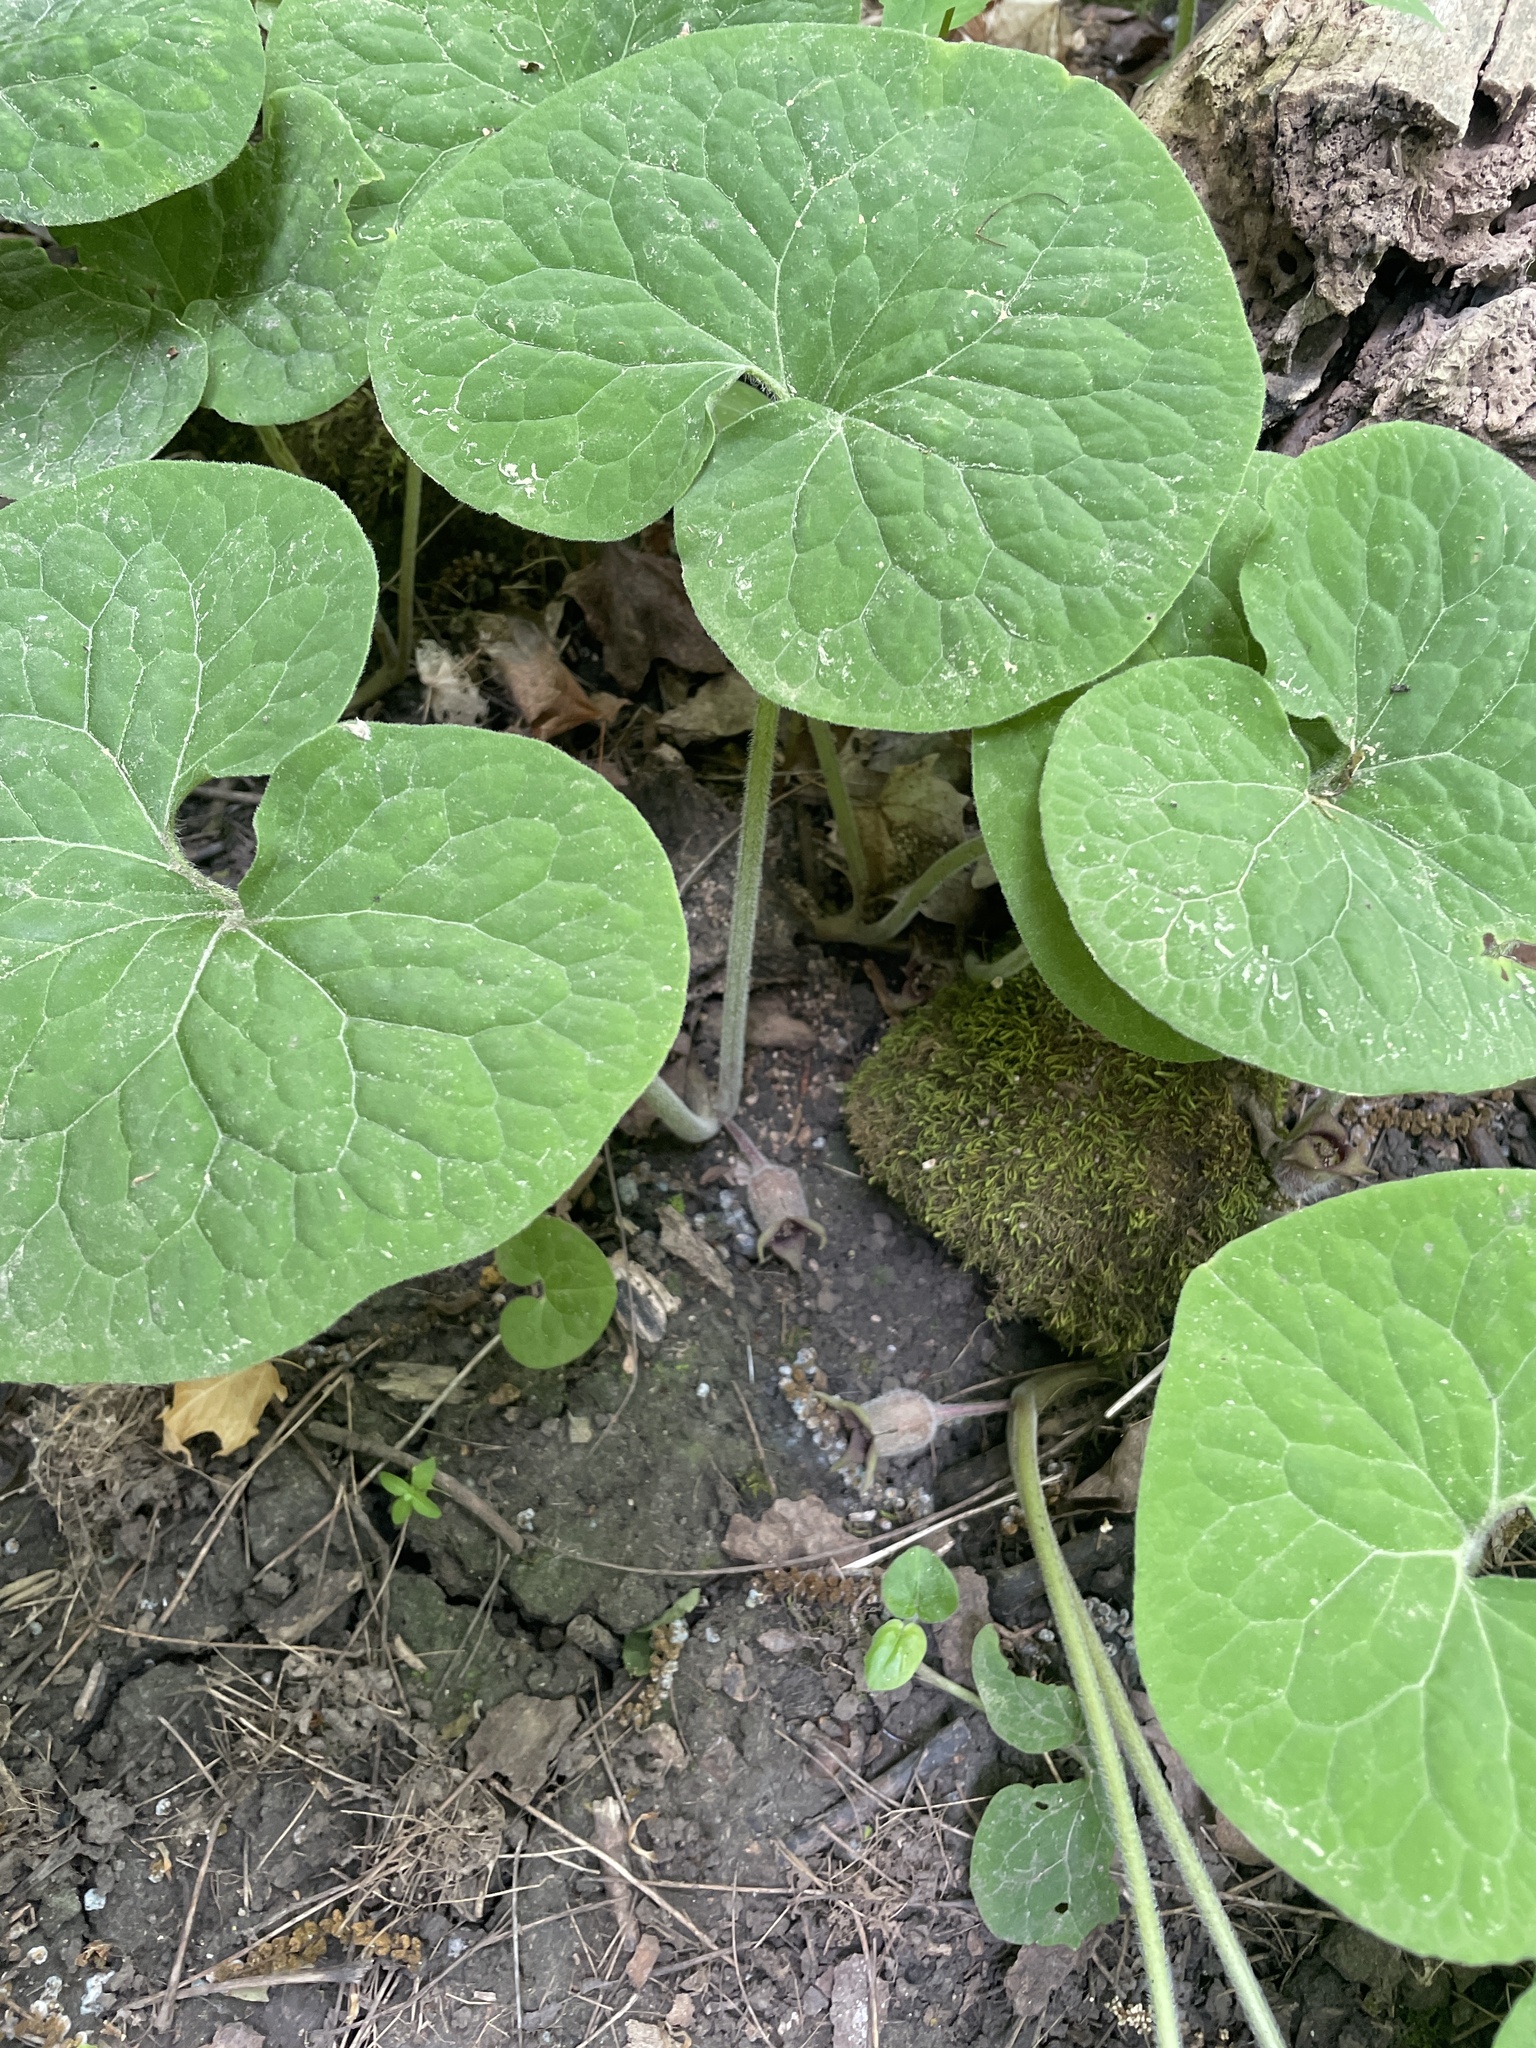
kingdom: Plantae
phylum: Tracheophyta
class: Magnoliopsida
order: Piperales
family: Aristolochiaceae
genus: Asarum
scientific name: Asarum canadense
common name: Wild ginger
